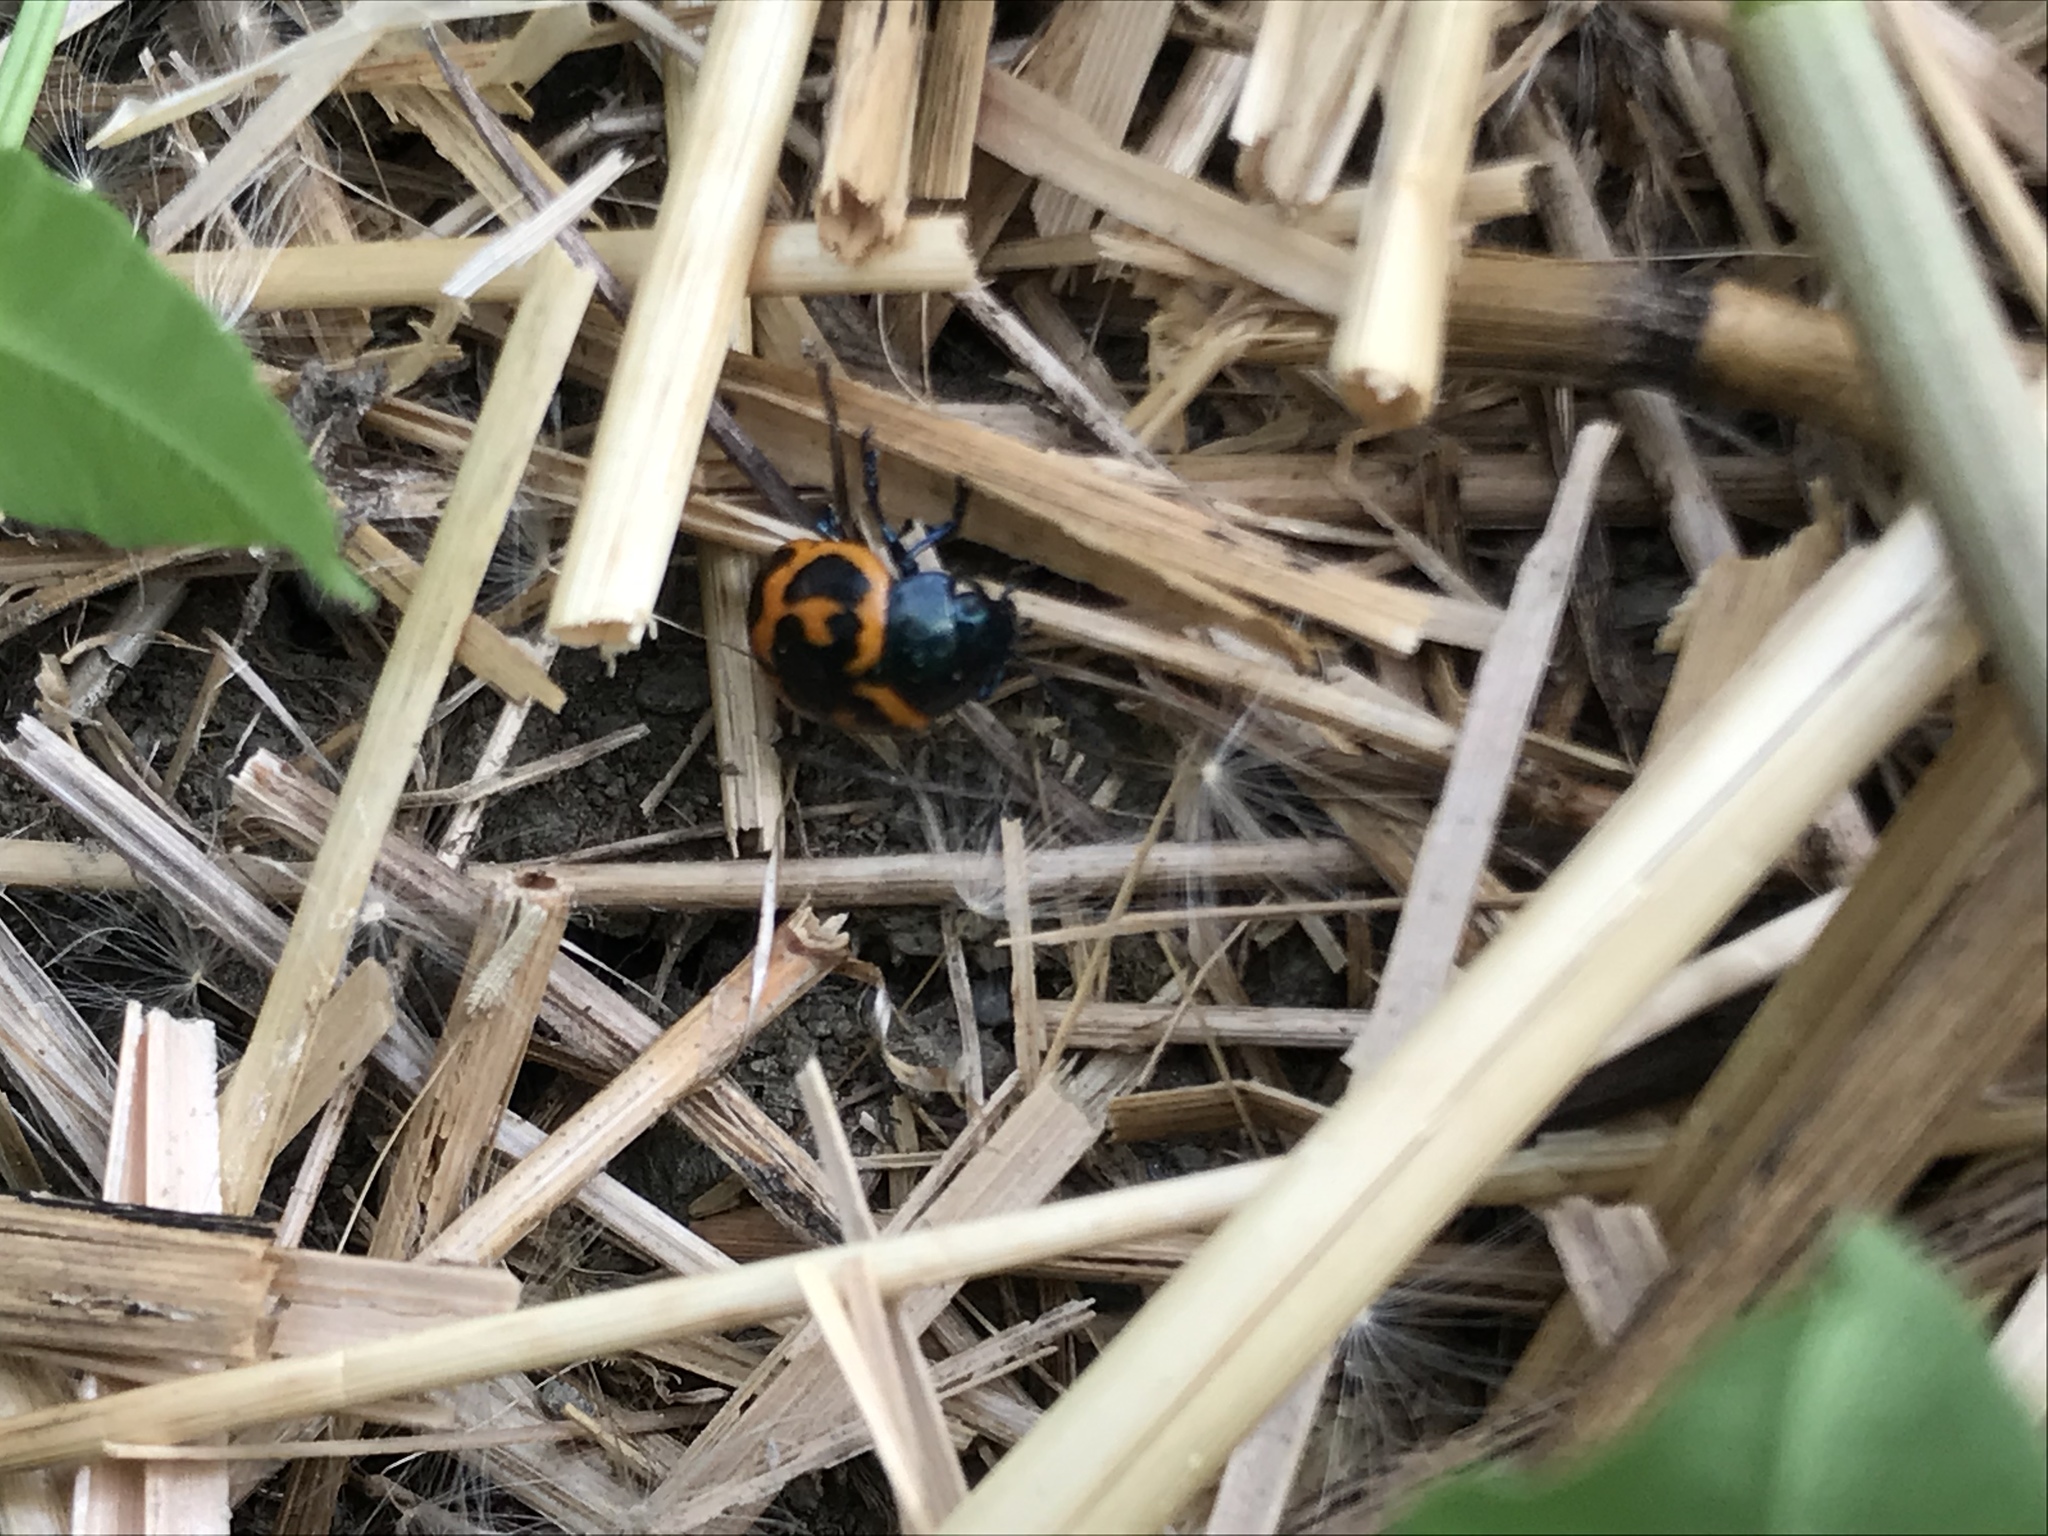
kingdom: Animalia
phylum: Arthropoda
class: Insecta
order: Coleoptera
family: Chrysomelidae
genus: Labidomera
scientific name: Labidomera clivicollis
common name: Swamp milkweed leaf beetle
